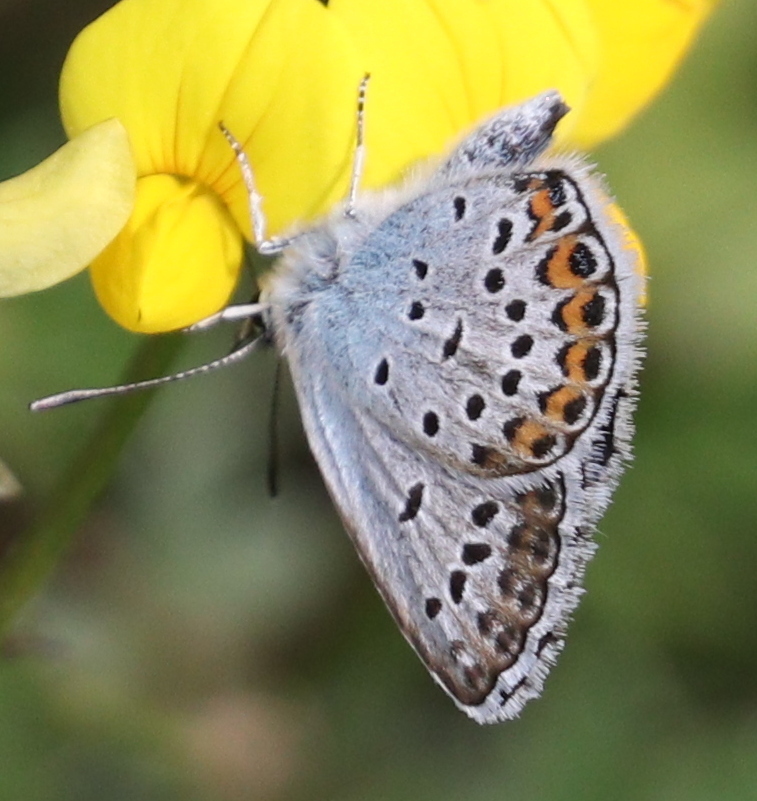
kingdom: Animalia
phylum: Arthropoda
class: Insecta
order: Lepidoptera
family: Lycaenidae
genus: Plebejus
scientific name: Plebejus argus
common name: Silver-studded blue
